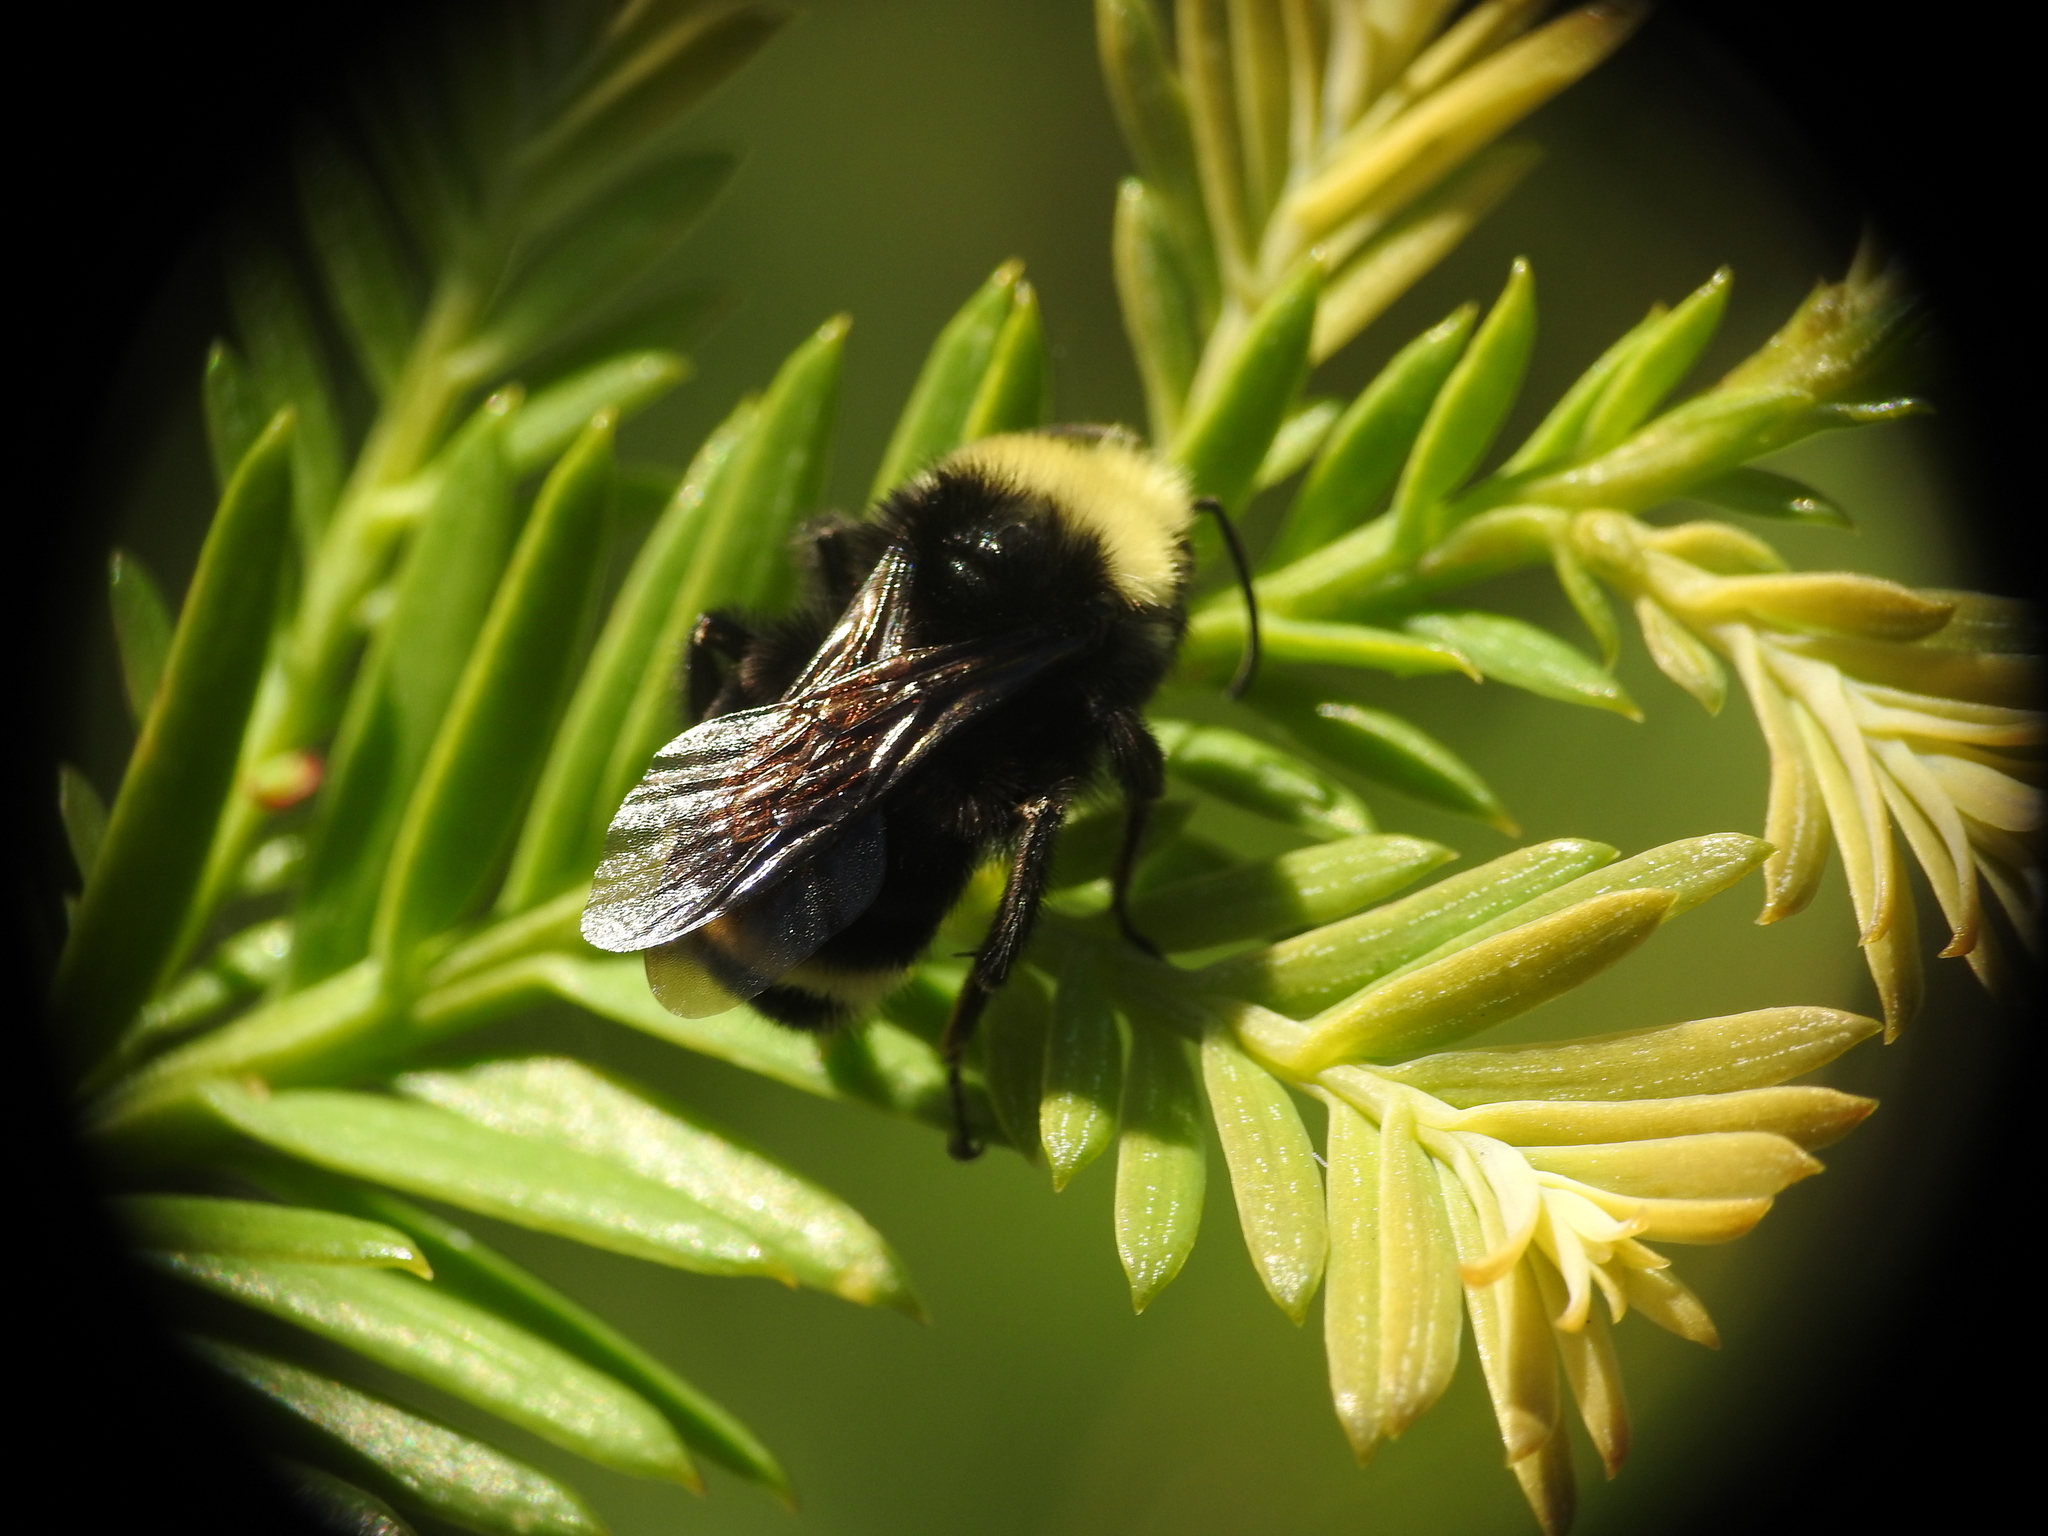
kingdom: Animalia
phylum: Arthropoda
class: Insecta
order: Hymenoptera
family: Apidae
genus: Bombus
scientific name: Bombus vosnesenskii
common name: Vosnesensky bumble bee
